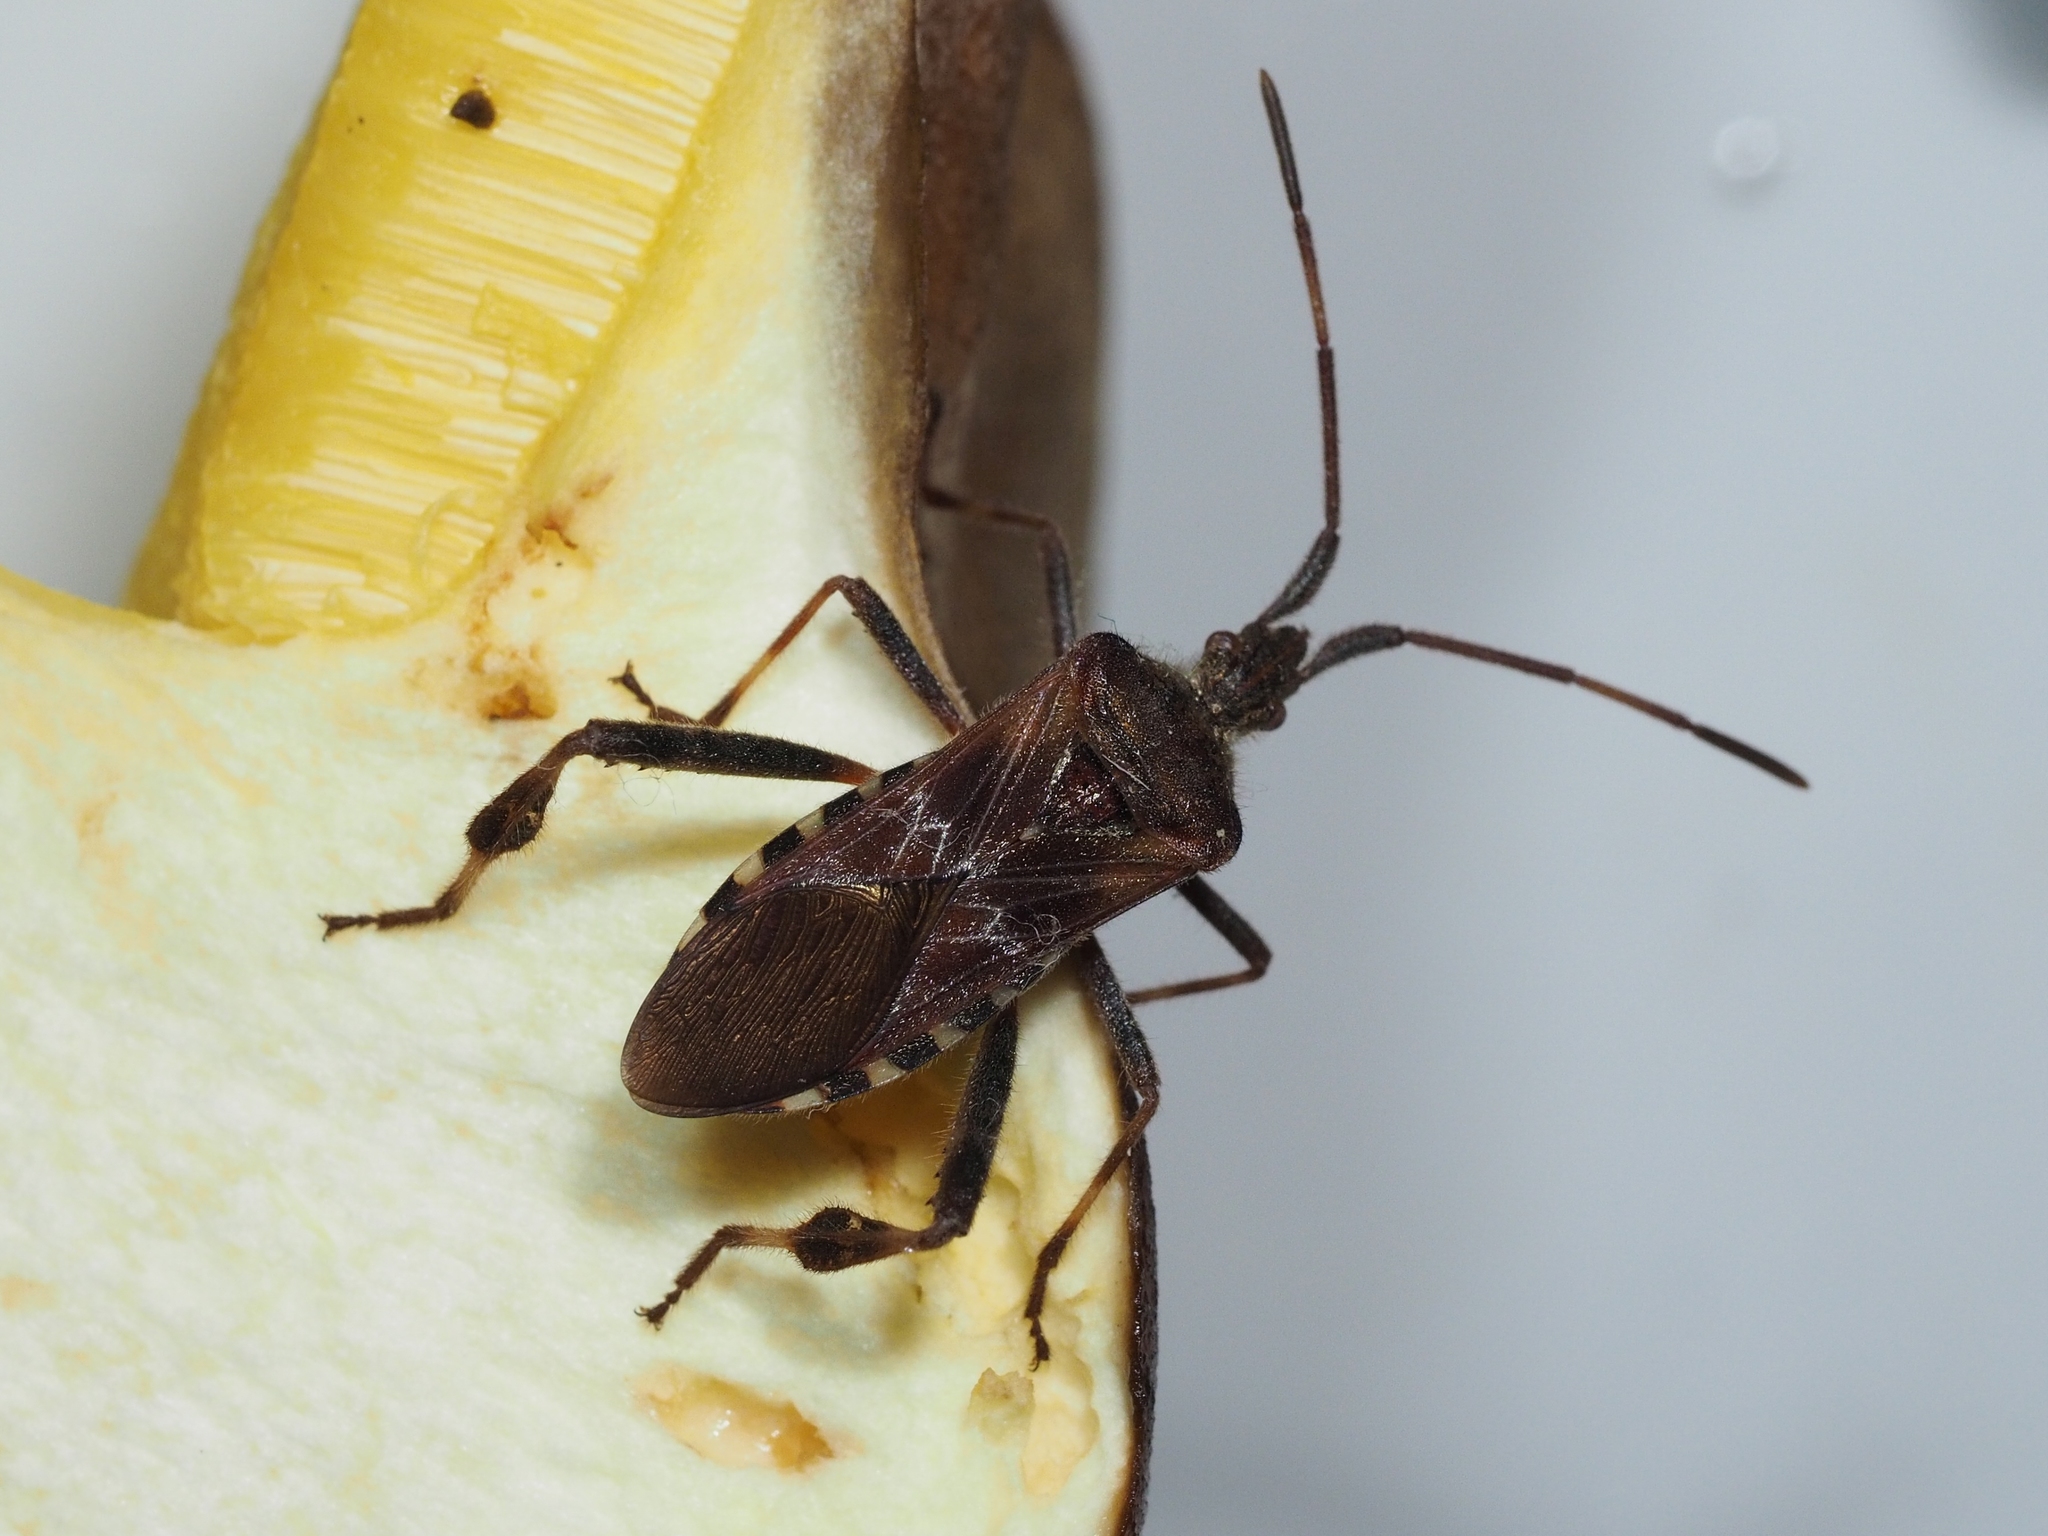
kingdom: Animalia
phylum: Arthropoda
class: Insecta
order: Hemiptera
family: Coreidae
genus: Leptoglossus
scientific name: Leptoglossus occidentalis
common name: Western conifer-seed bug
